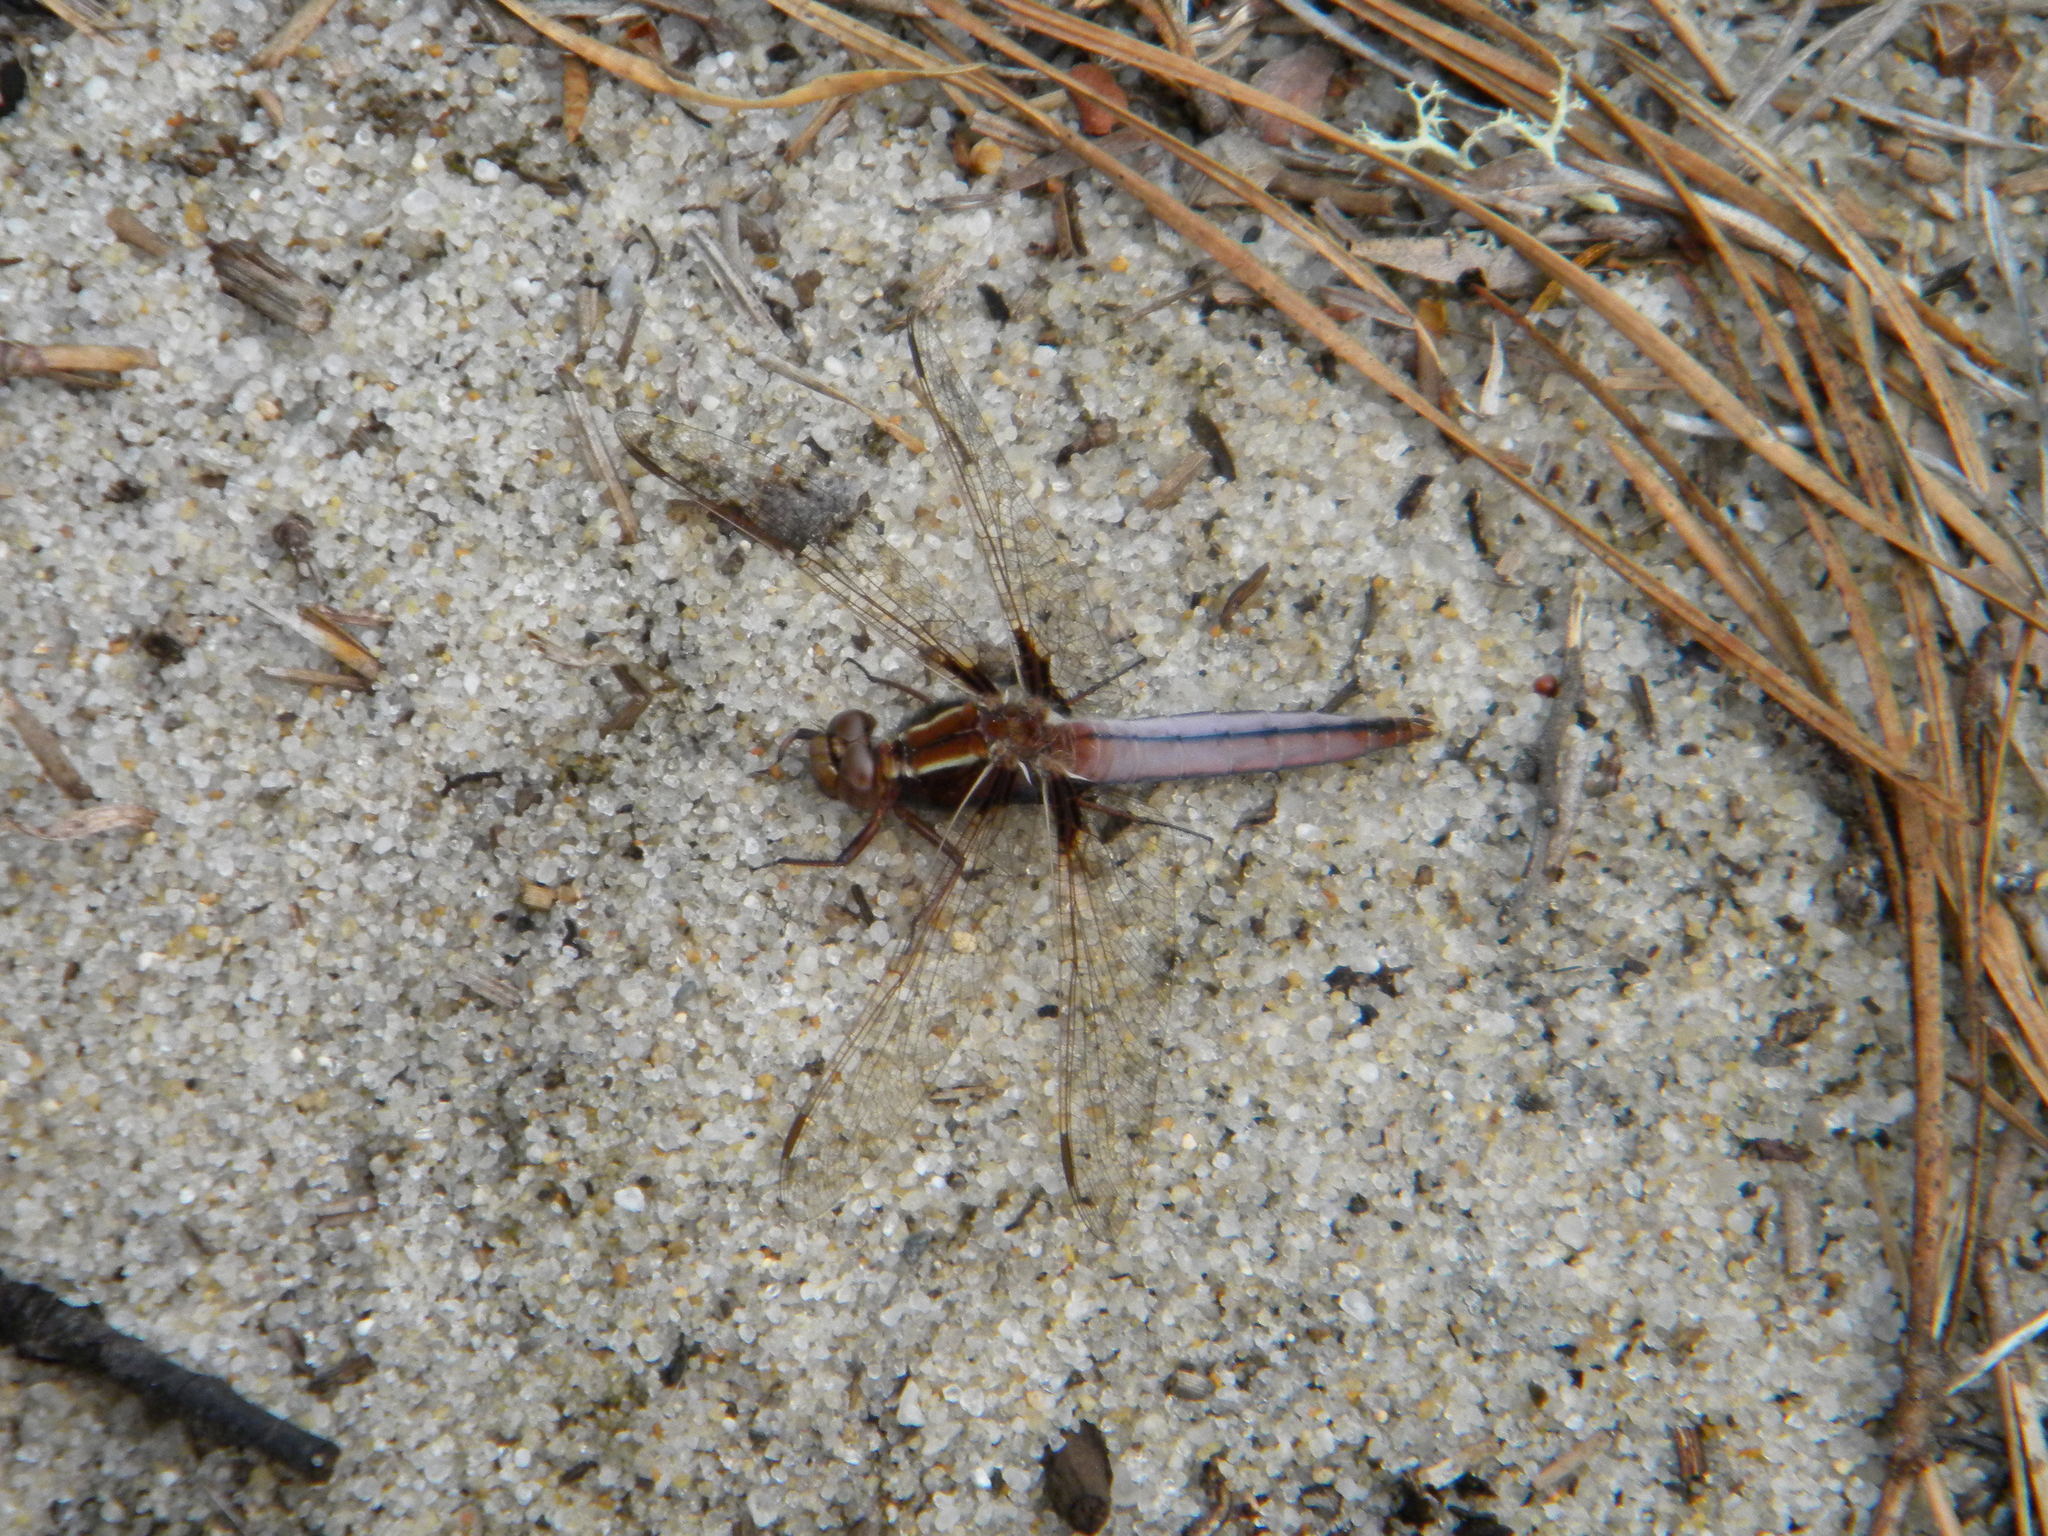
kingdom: Animalia
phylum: Arthropoda
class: Insecta
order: Odonata
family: Libellulidae
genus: Ladona
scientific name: Ladona exusta
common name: Libellule embrasée
